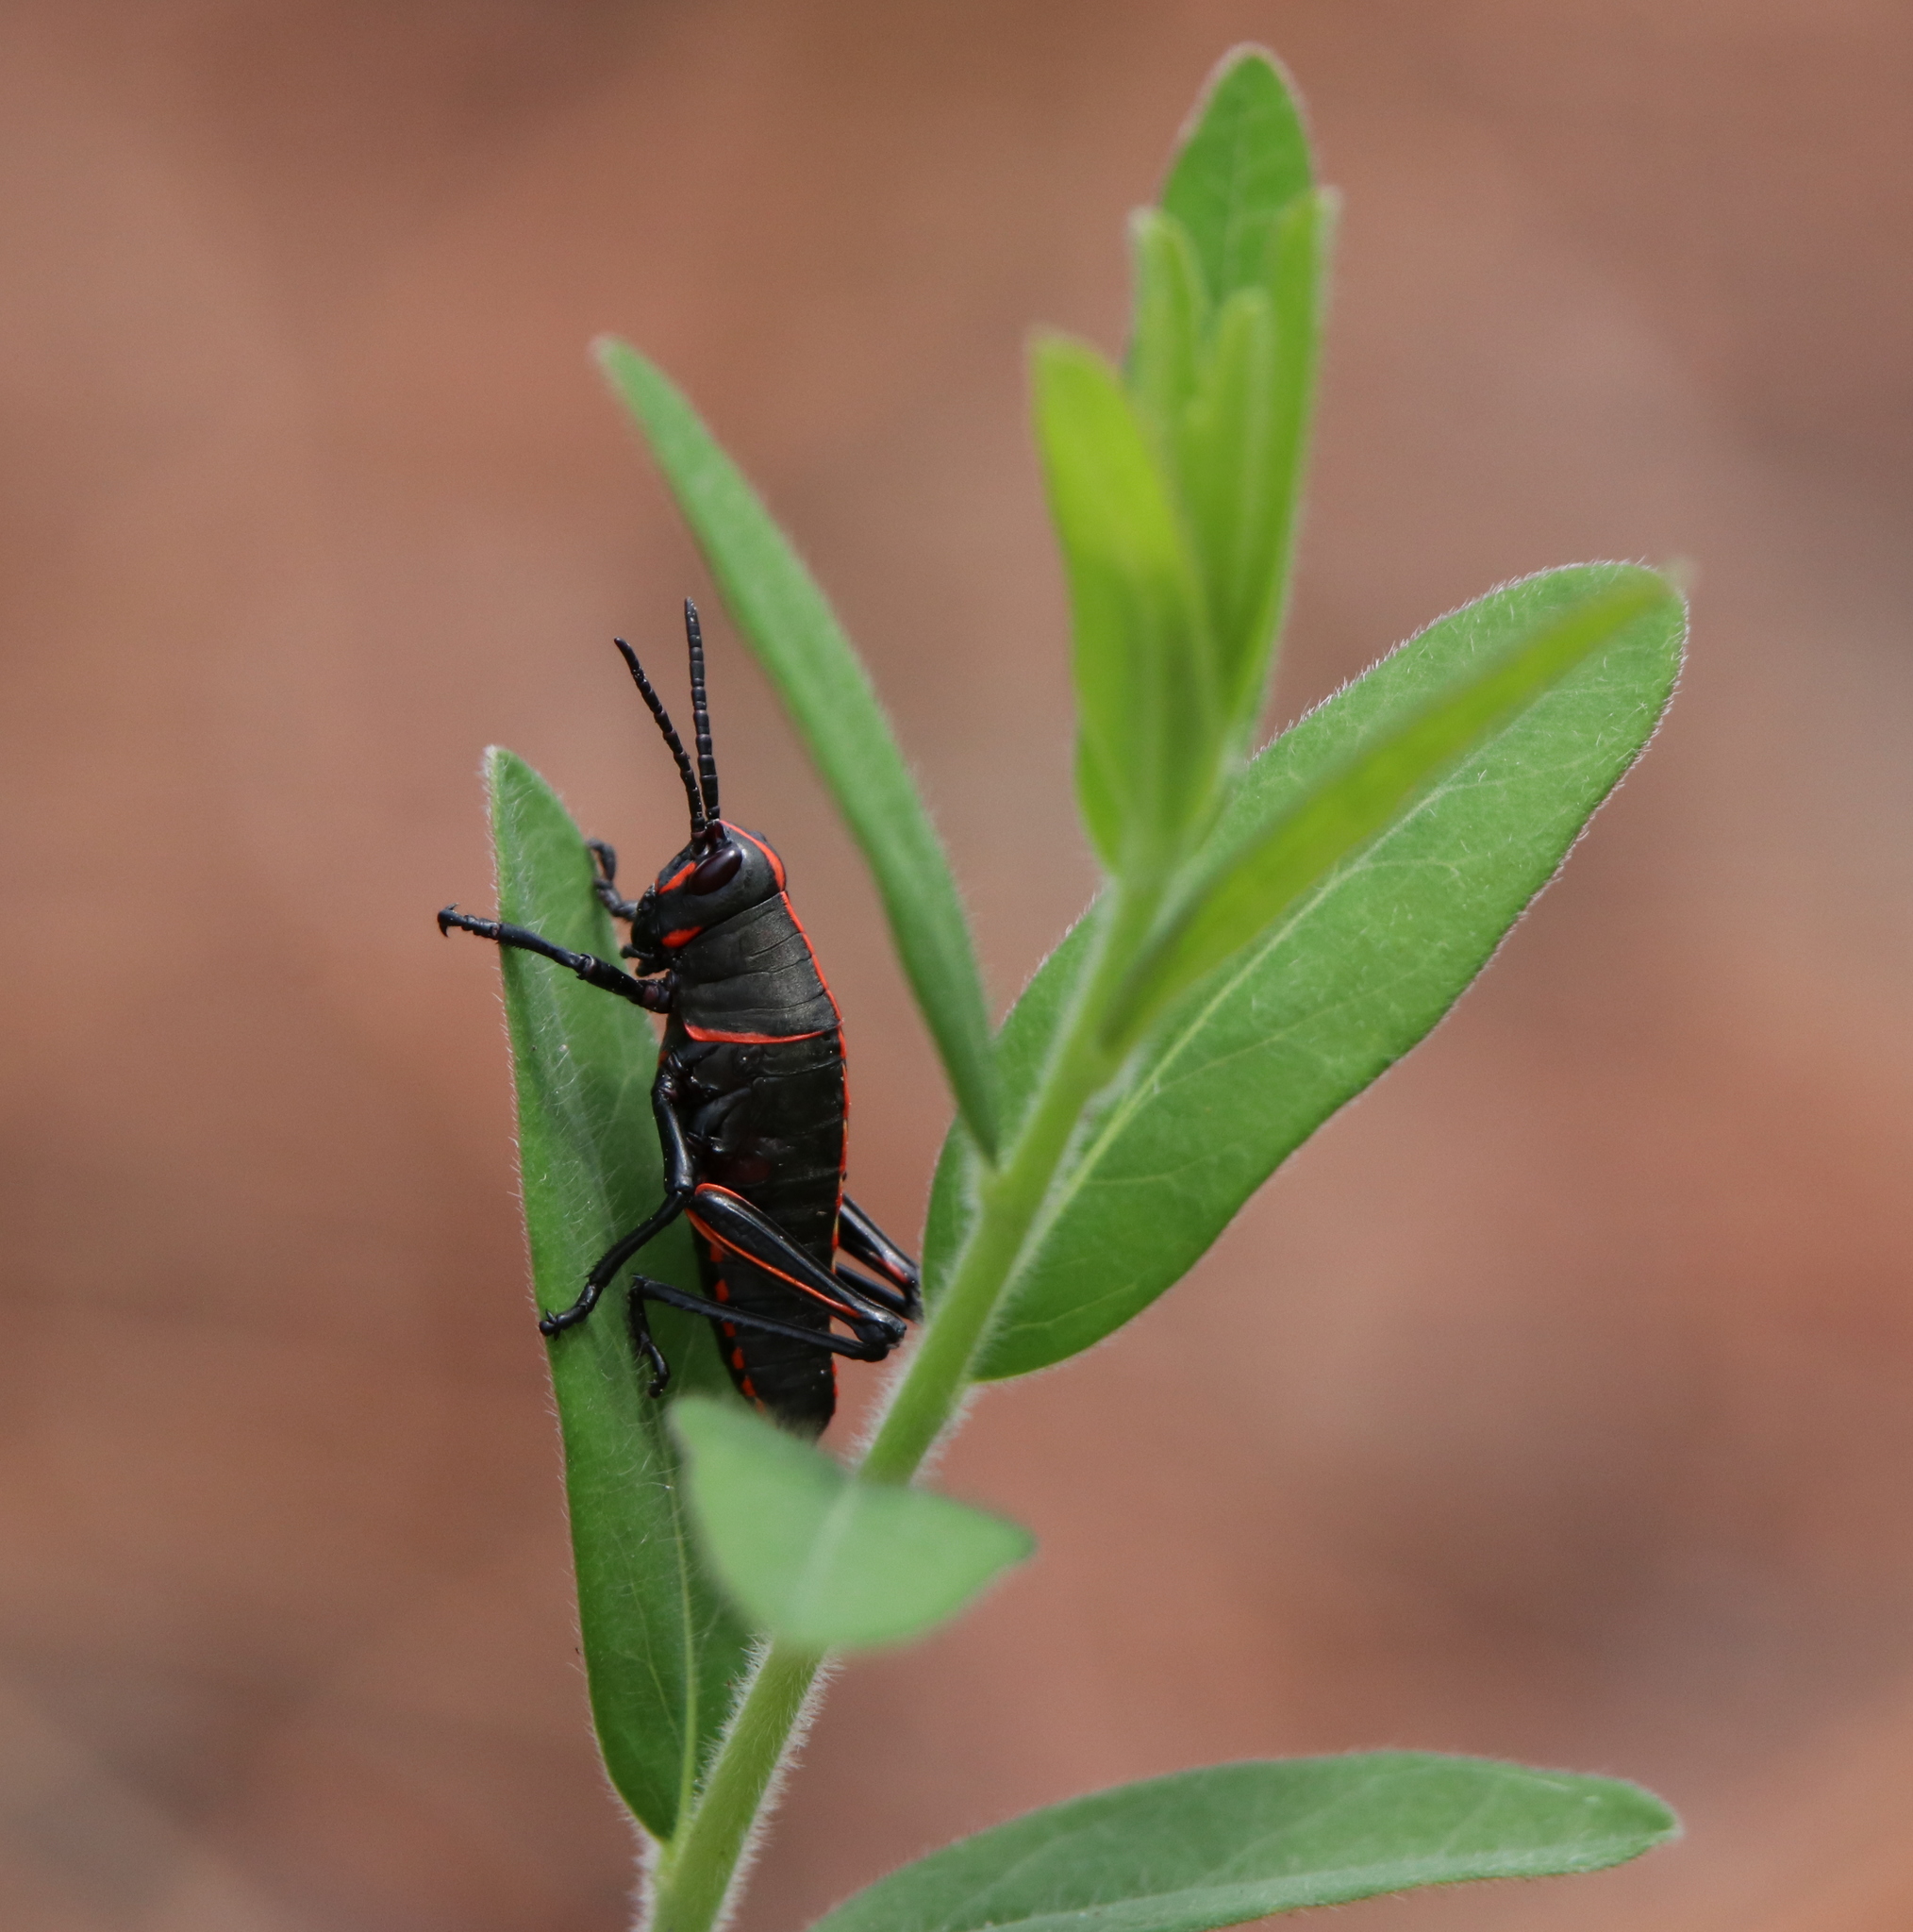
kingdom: Animalia
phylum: Arthropoda
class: Insecta
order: Orthoptera
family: Romaleidae
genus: Romalea
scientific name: Romalea microptera
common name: Eastern lubber grasshopper
